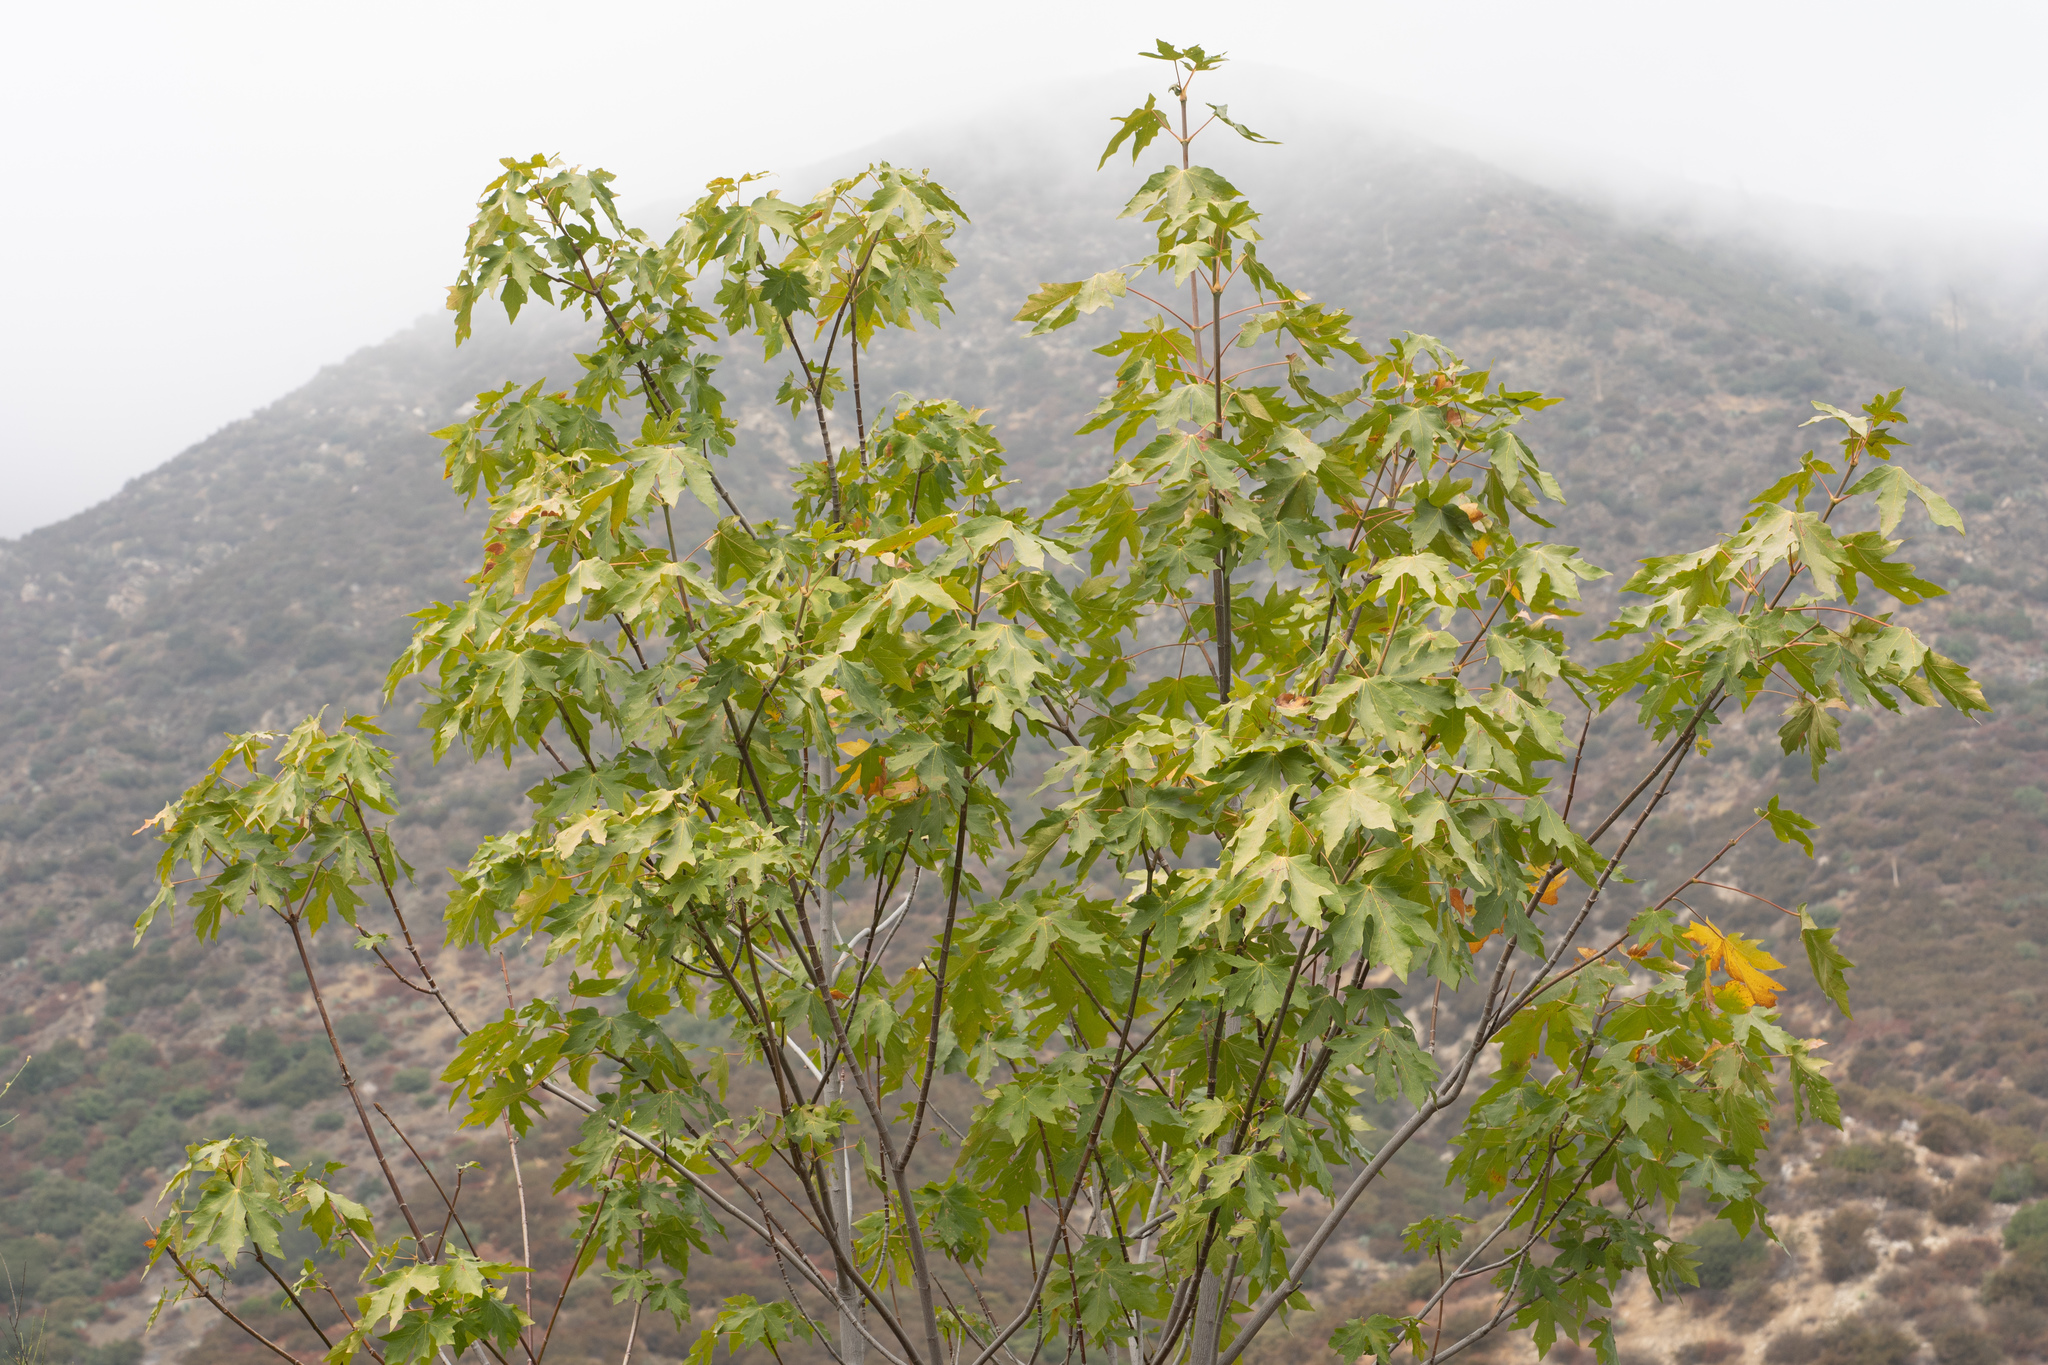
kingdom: Plantae
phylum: Tracheophyta
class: Magnoliopsida
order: Sapindales
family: Sapindaceae
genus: Acer
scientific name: Acer macrophyllum
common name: Oregon maple
